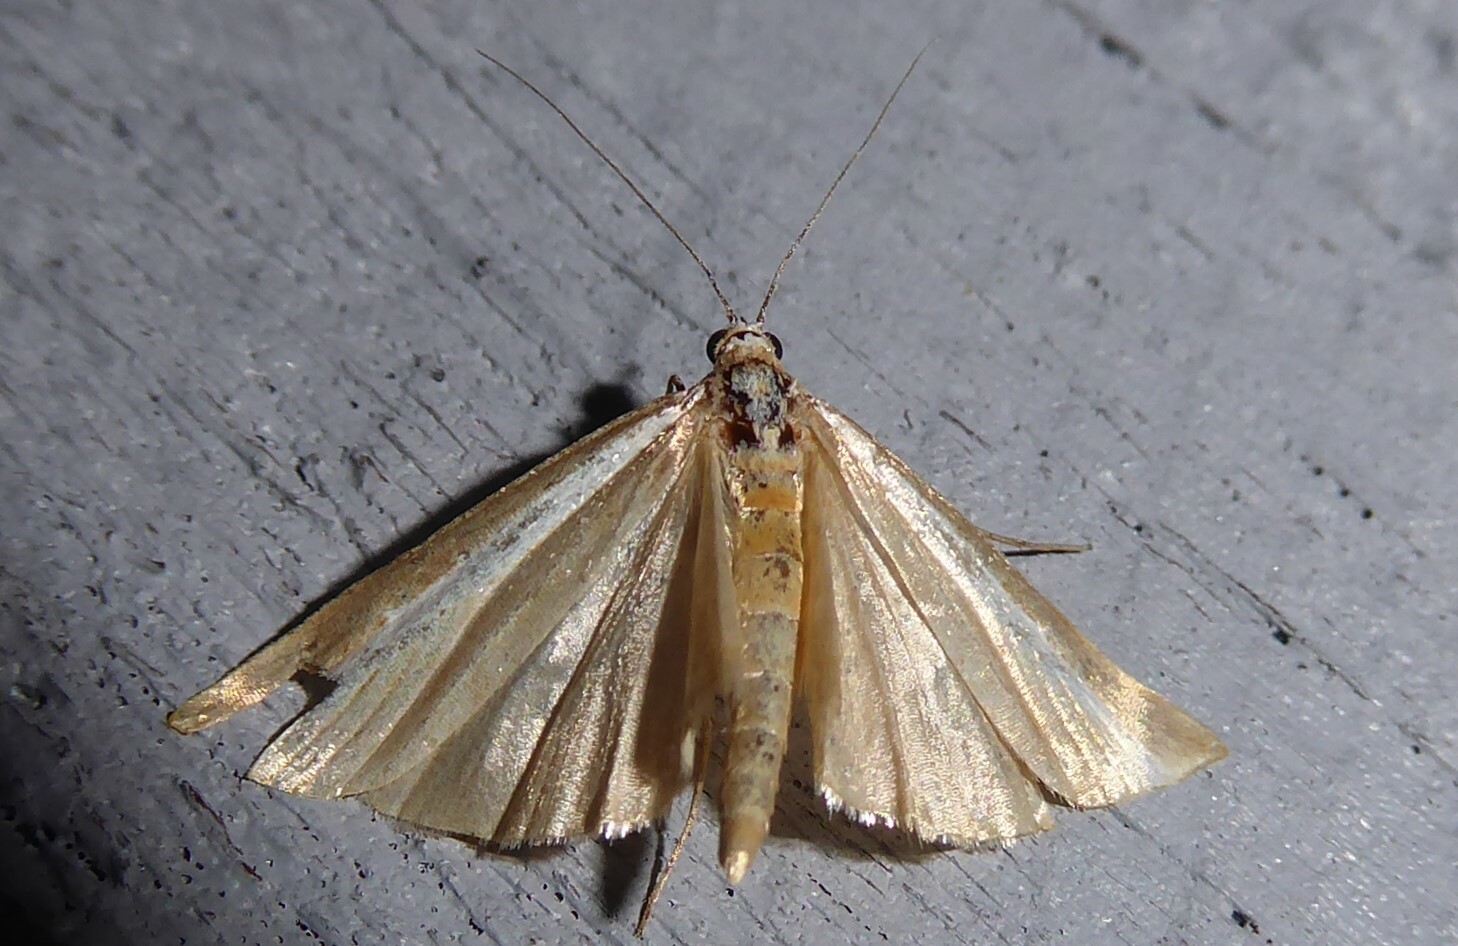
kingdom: Animalia
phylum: Arthropoda
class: Insecta
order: Lepidoptera
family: Crambidae
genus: Orocrambus
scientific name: Orocrambus vittellus
